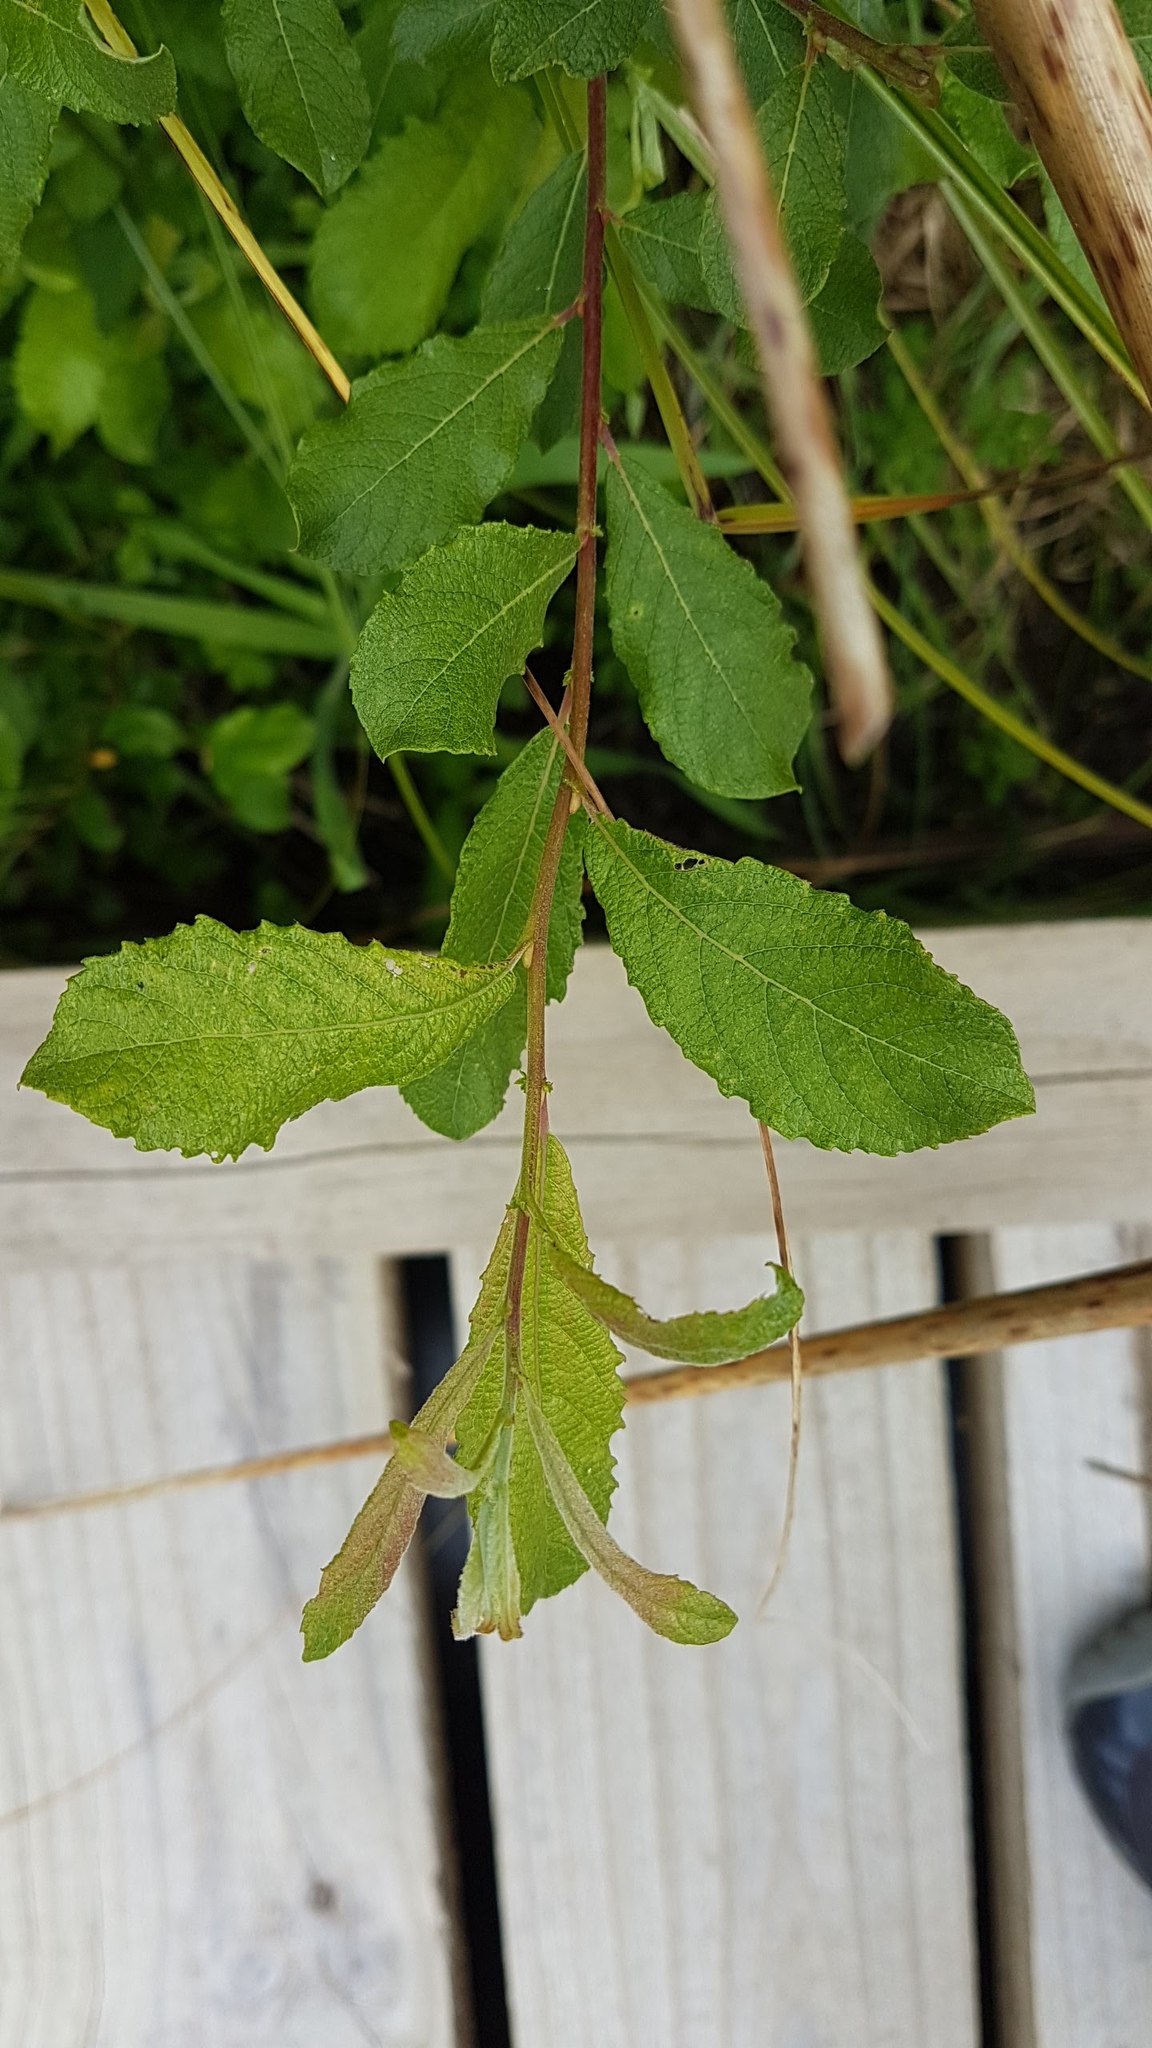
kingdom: Plantae
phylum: Tracheophyta
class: Magnoliopsida
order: Malpighiales
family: Salicaceae
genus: Salix
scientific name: Salix cinerea
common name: Common sallow
